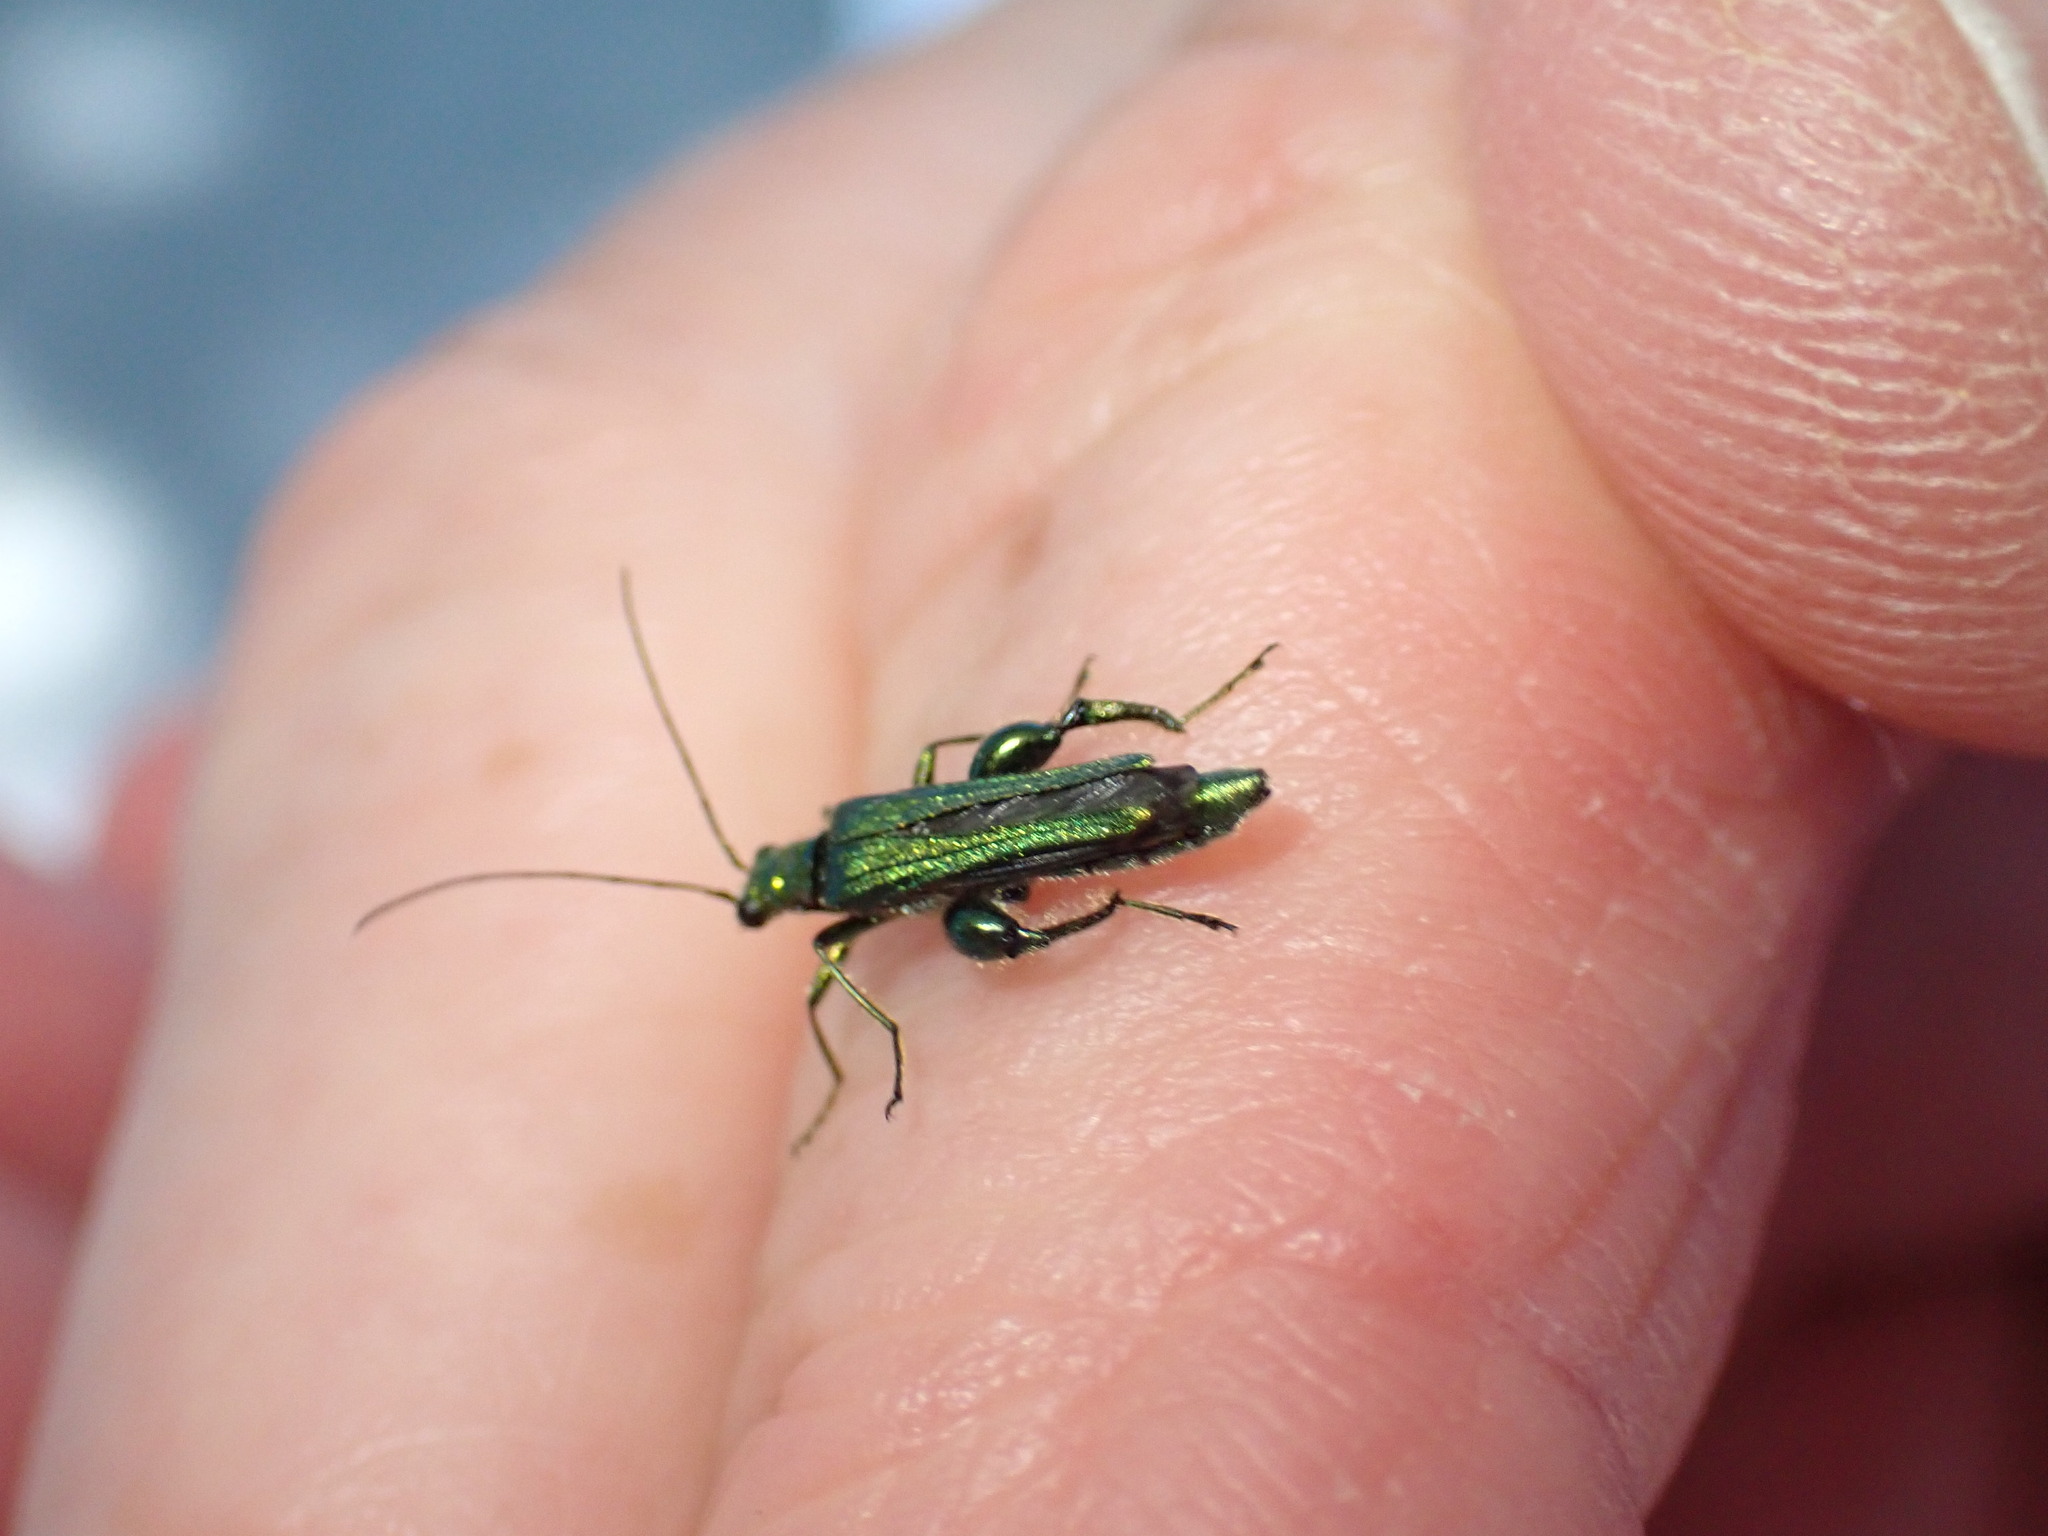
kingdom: Animalia
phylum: Arthropoda
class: Insecta
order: Coleoptera
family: Oedemeridae
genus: Oedemera
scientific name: Oedemera nobilis
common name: Swollen-thighed beetle
